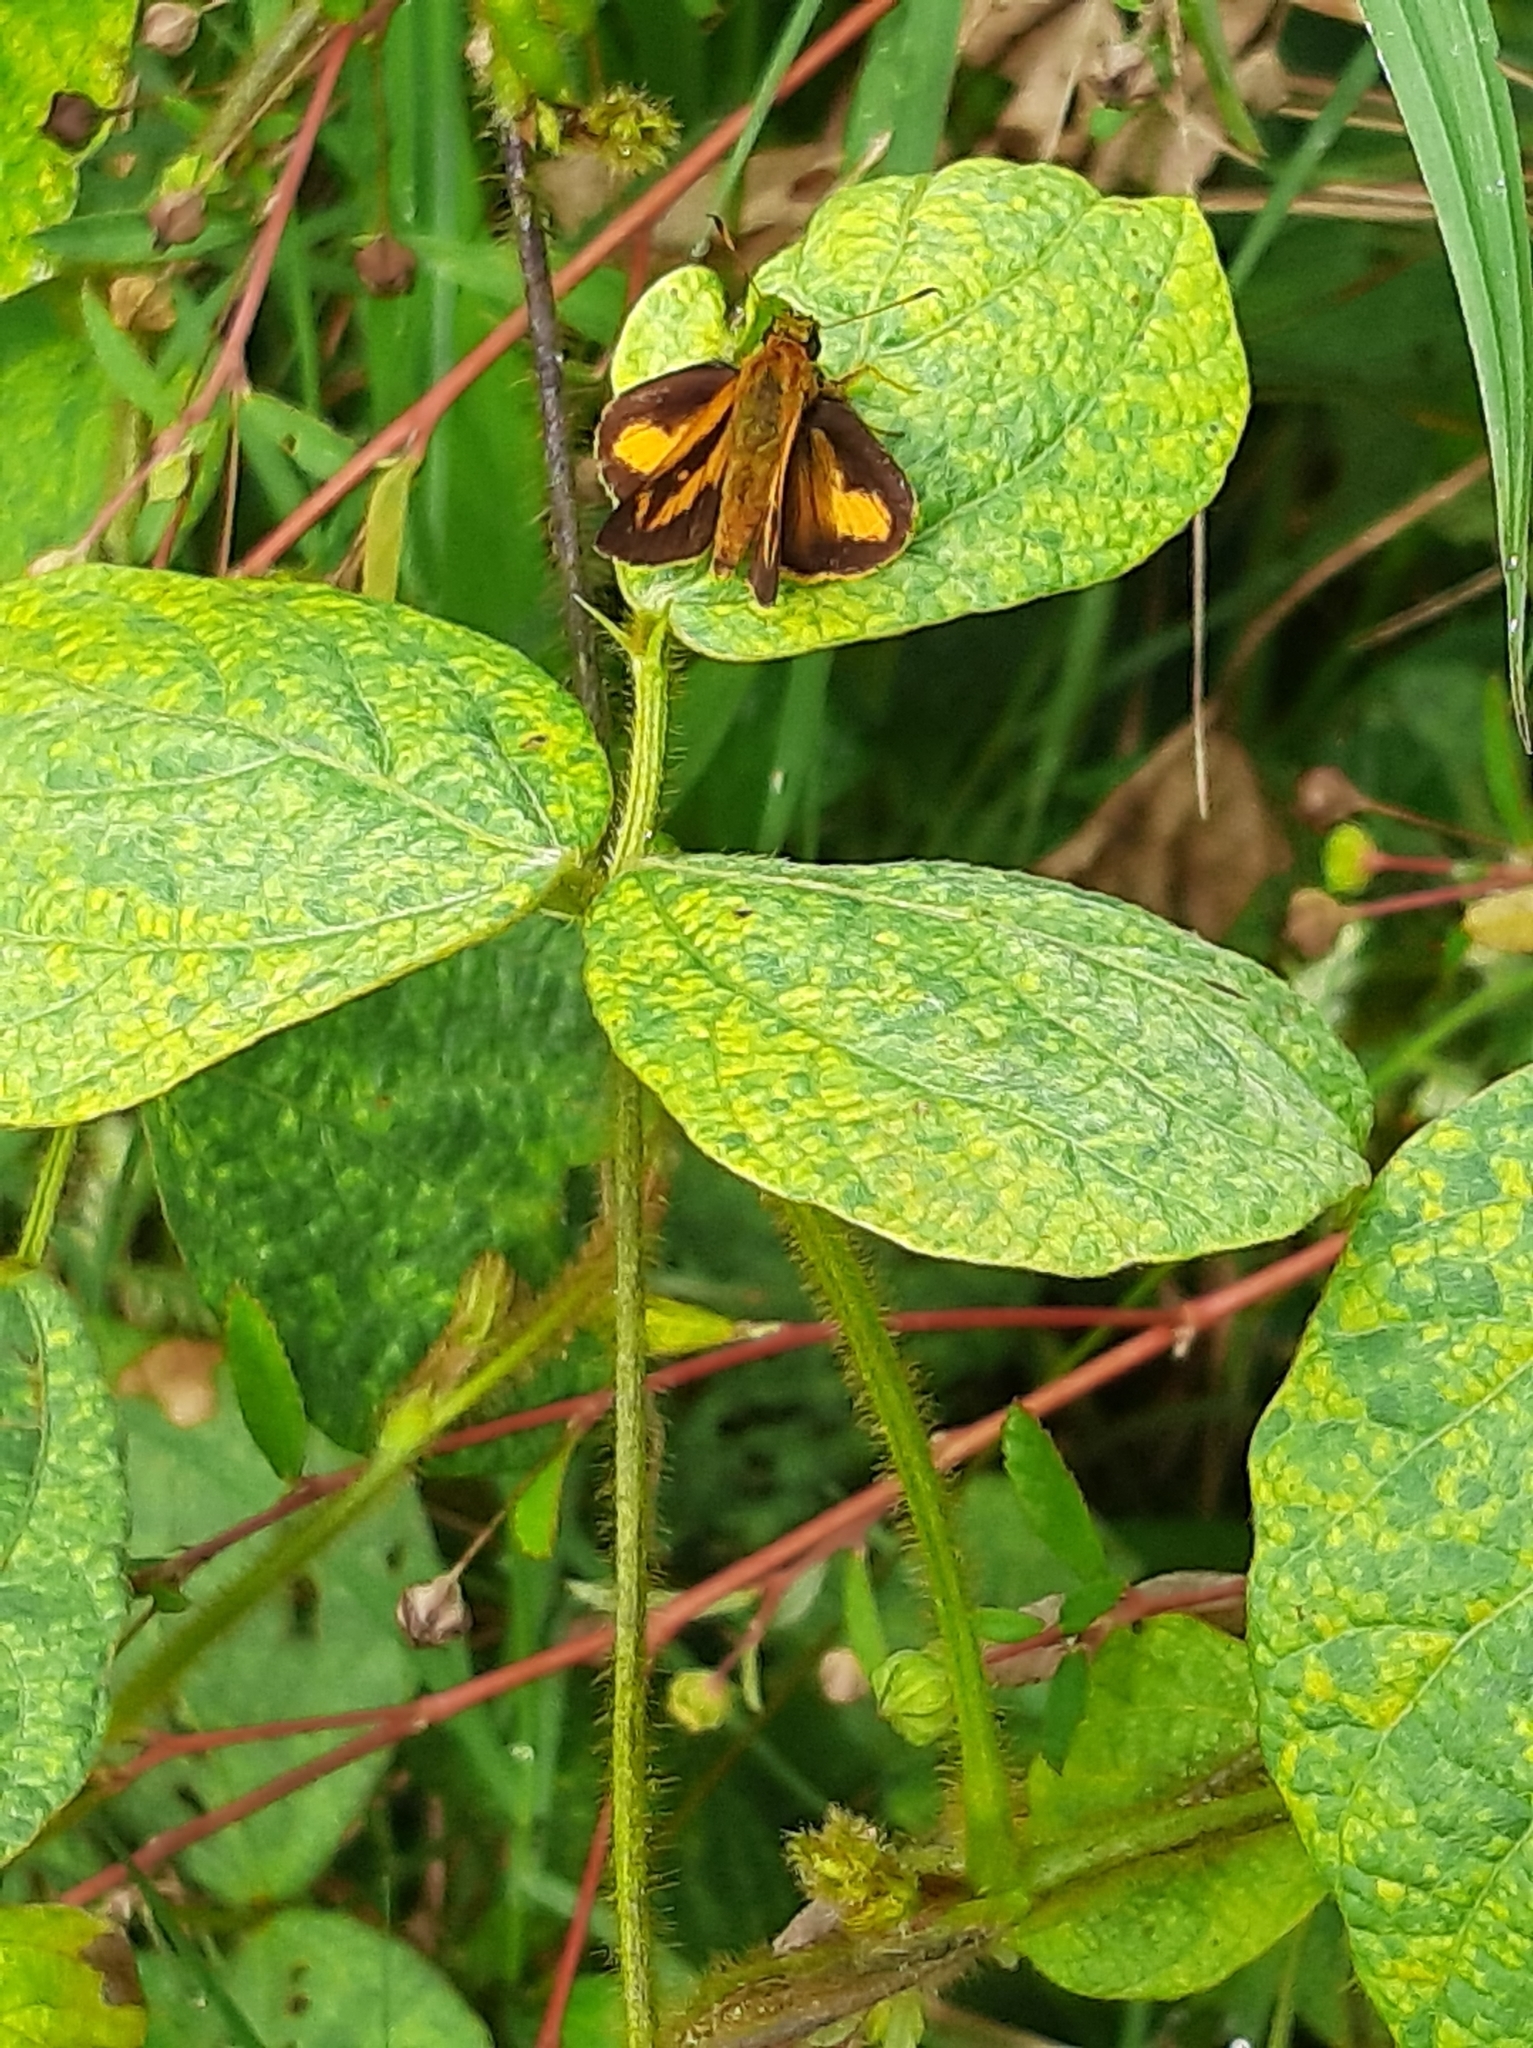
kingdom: Animalia
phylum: Arthropoda
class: Insecta
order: Lepidoptera
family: Hesperiidae
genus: Anthoptus
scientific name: Anthoptus epictetus
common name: Trailside skipper
